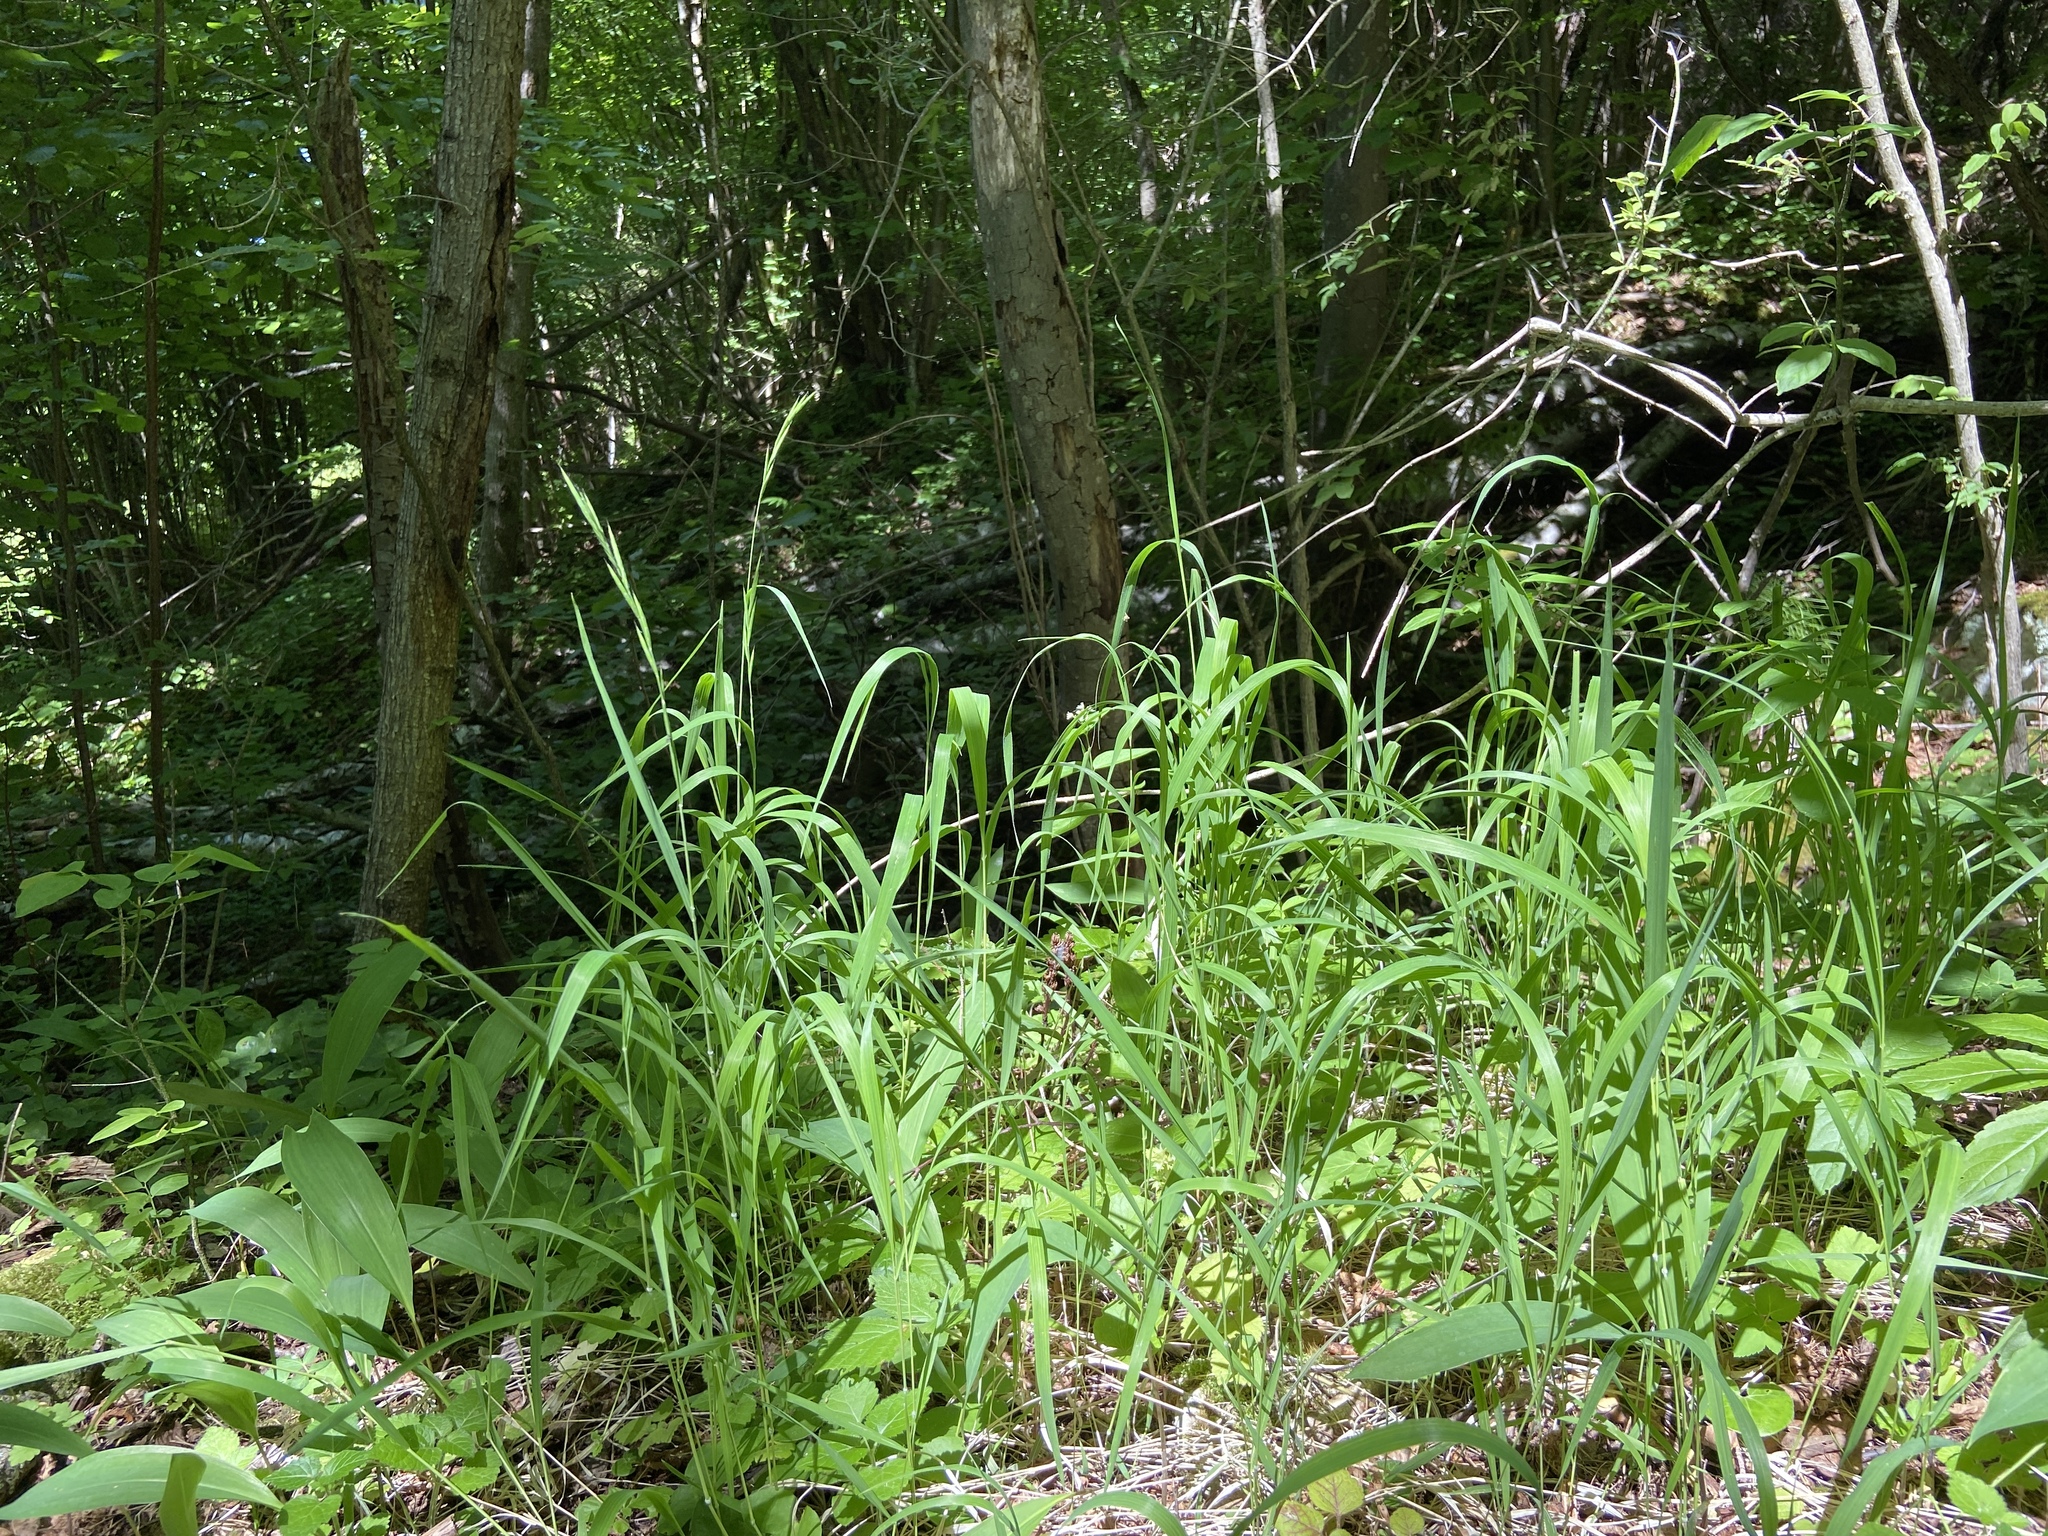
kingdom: Plantae
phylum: Tracheophyta
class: Liliopsida
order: Poales
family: Poaceae
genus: Brachypodium
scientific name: Brachypodium pinnatum
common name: Tor grass
